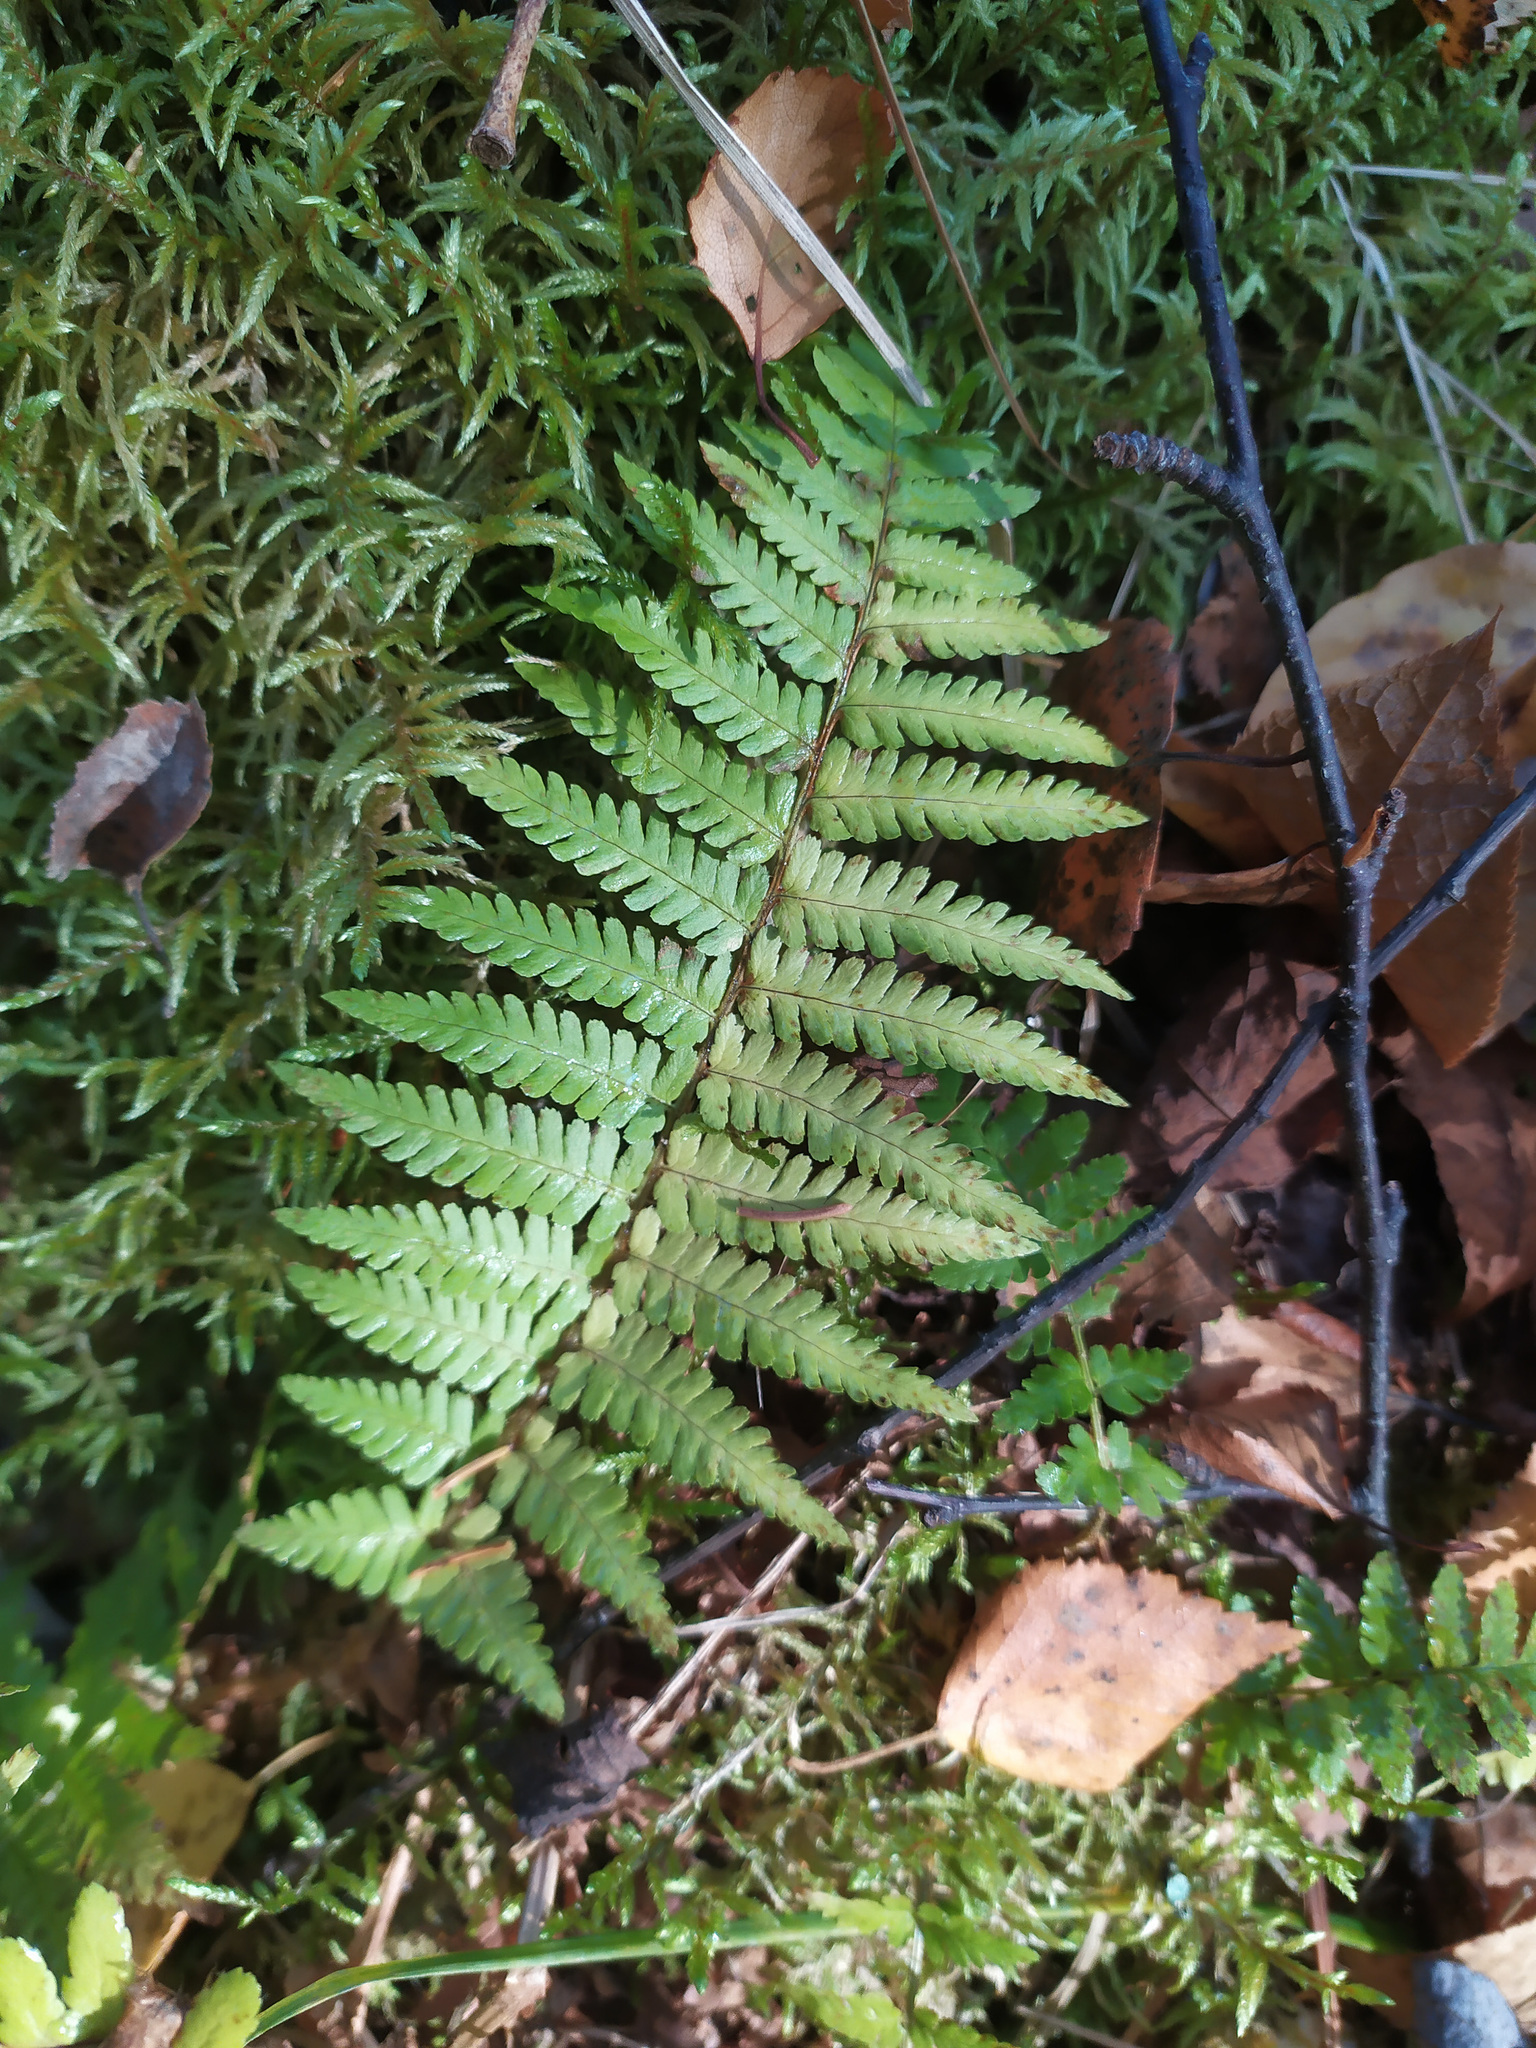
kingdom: Plantae
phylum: Tracheophyta
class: Polypodiopsida
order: Polypodiales
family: Dryopteridaceae
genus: Dryopteris
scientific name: Dryopteris filix-mas
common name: Male fern
